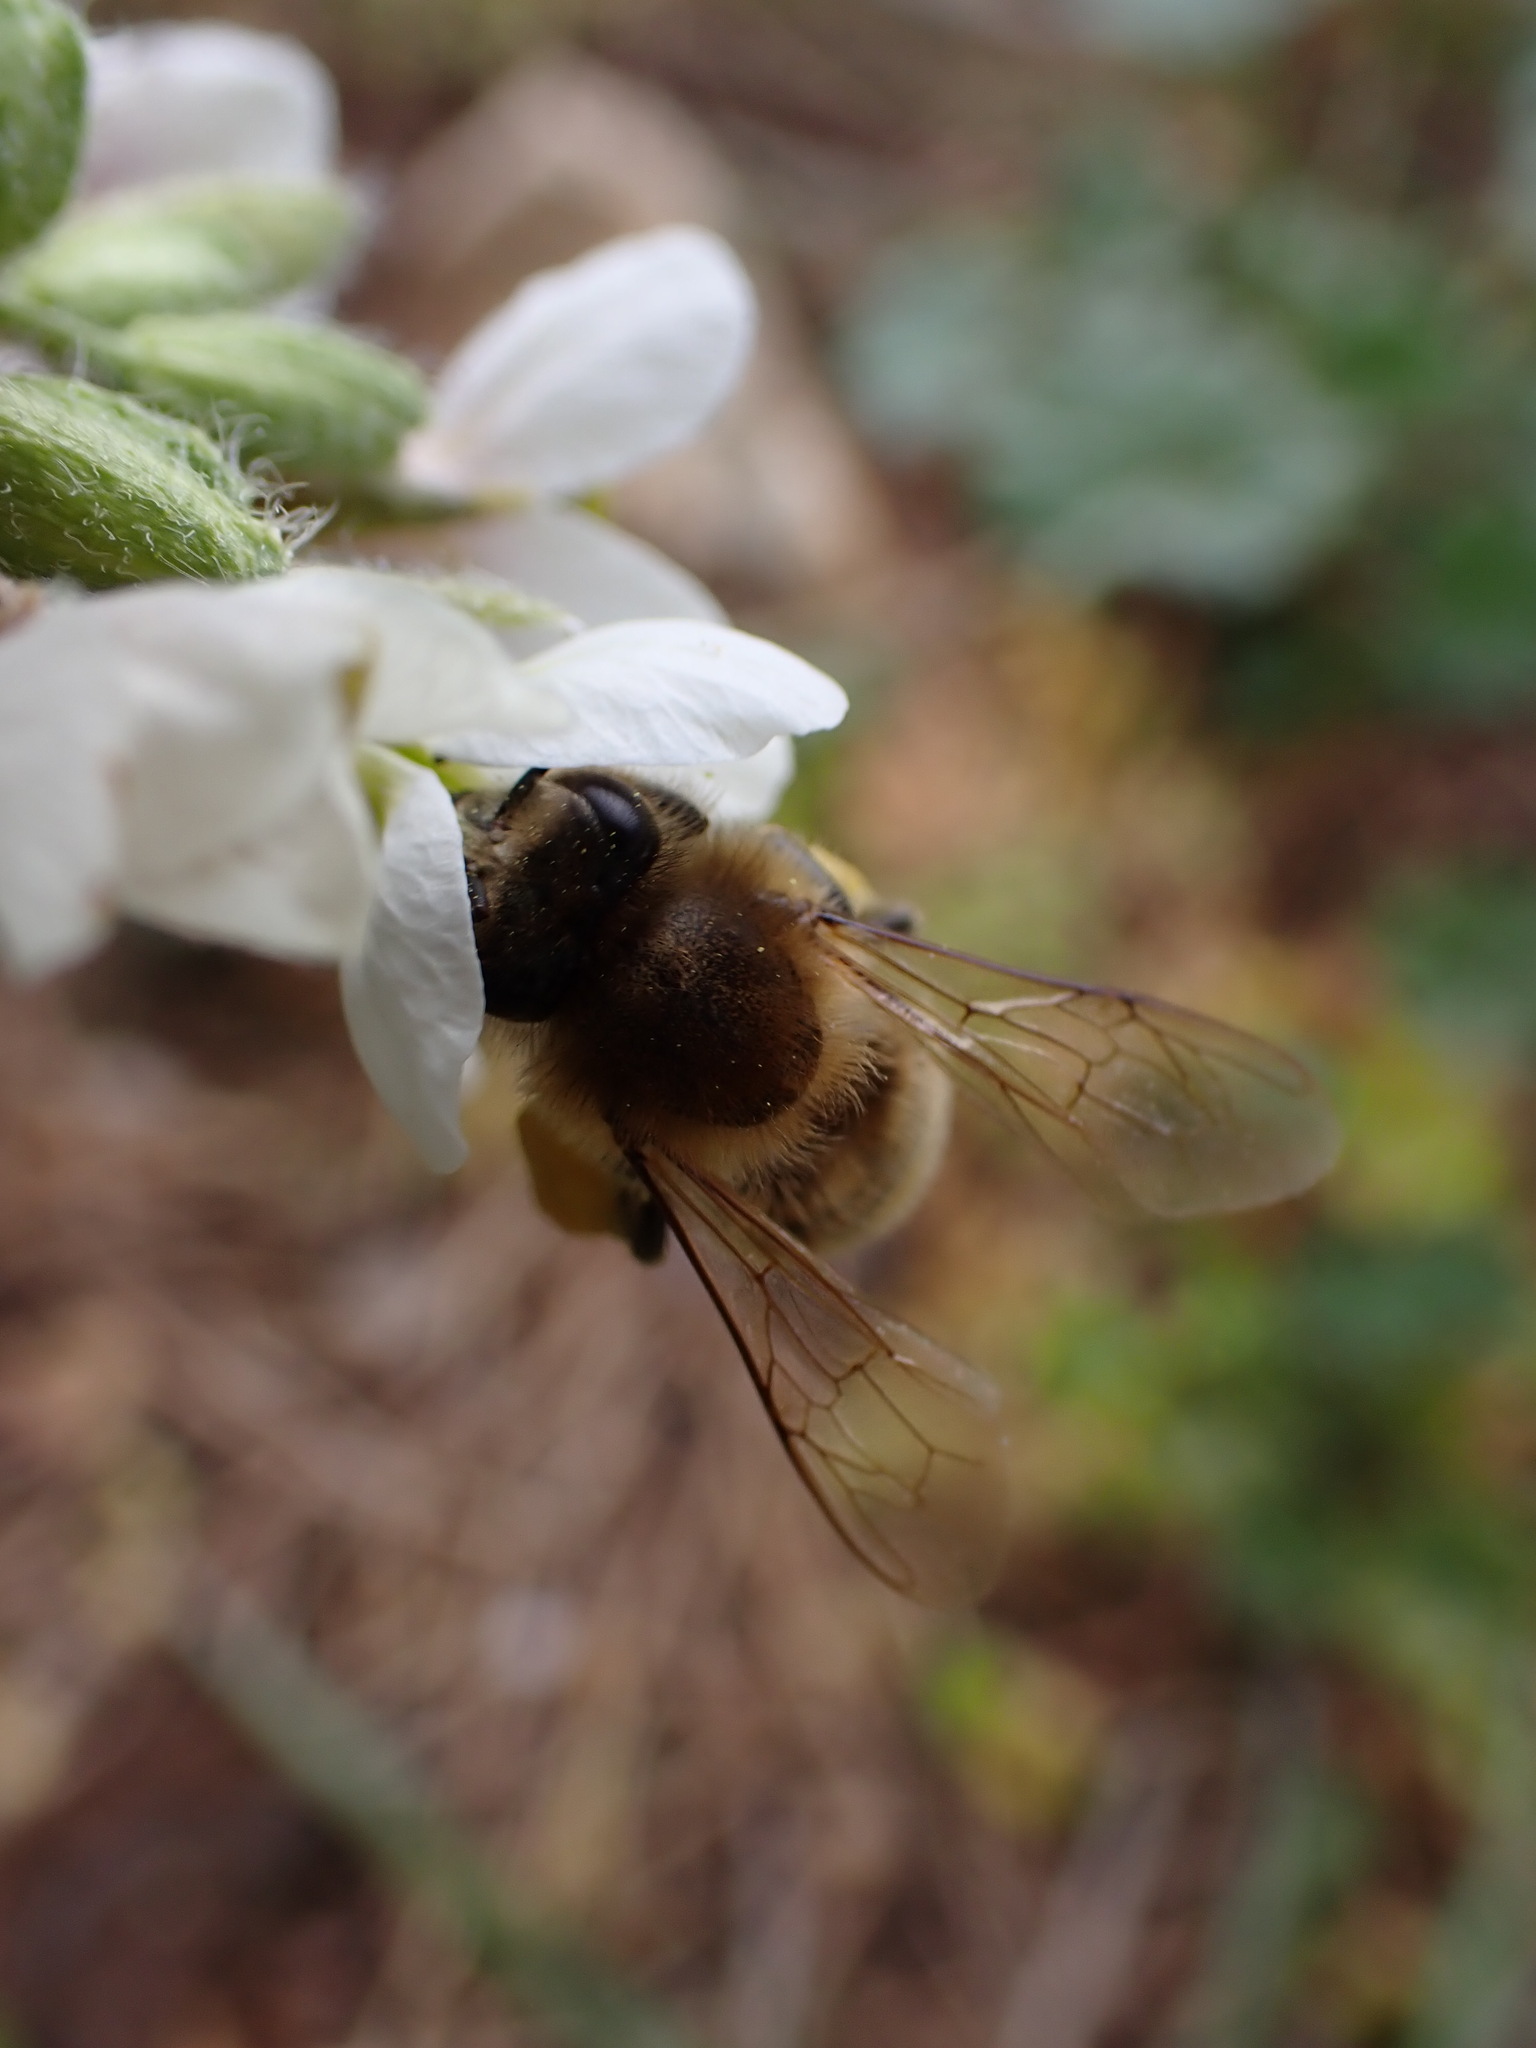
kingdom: Animalia
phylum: Arthropoda
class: Insecta
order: Hymenoptera
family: Apidae
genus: Apis
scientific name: Apis mellifera
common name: Honey bee
